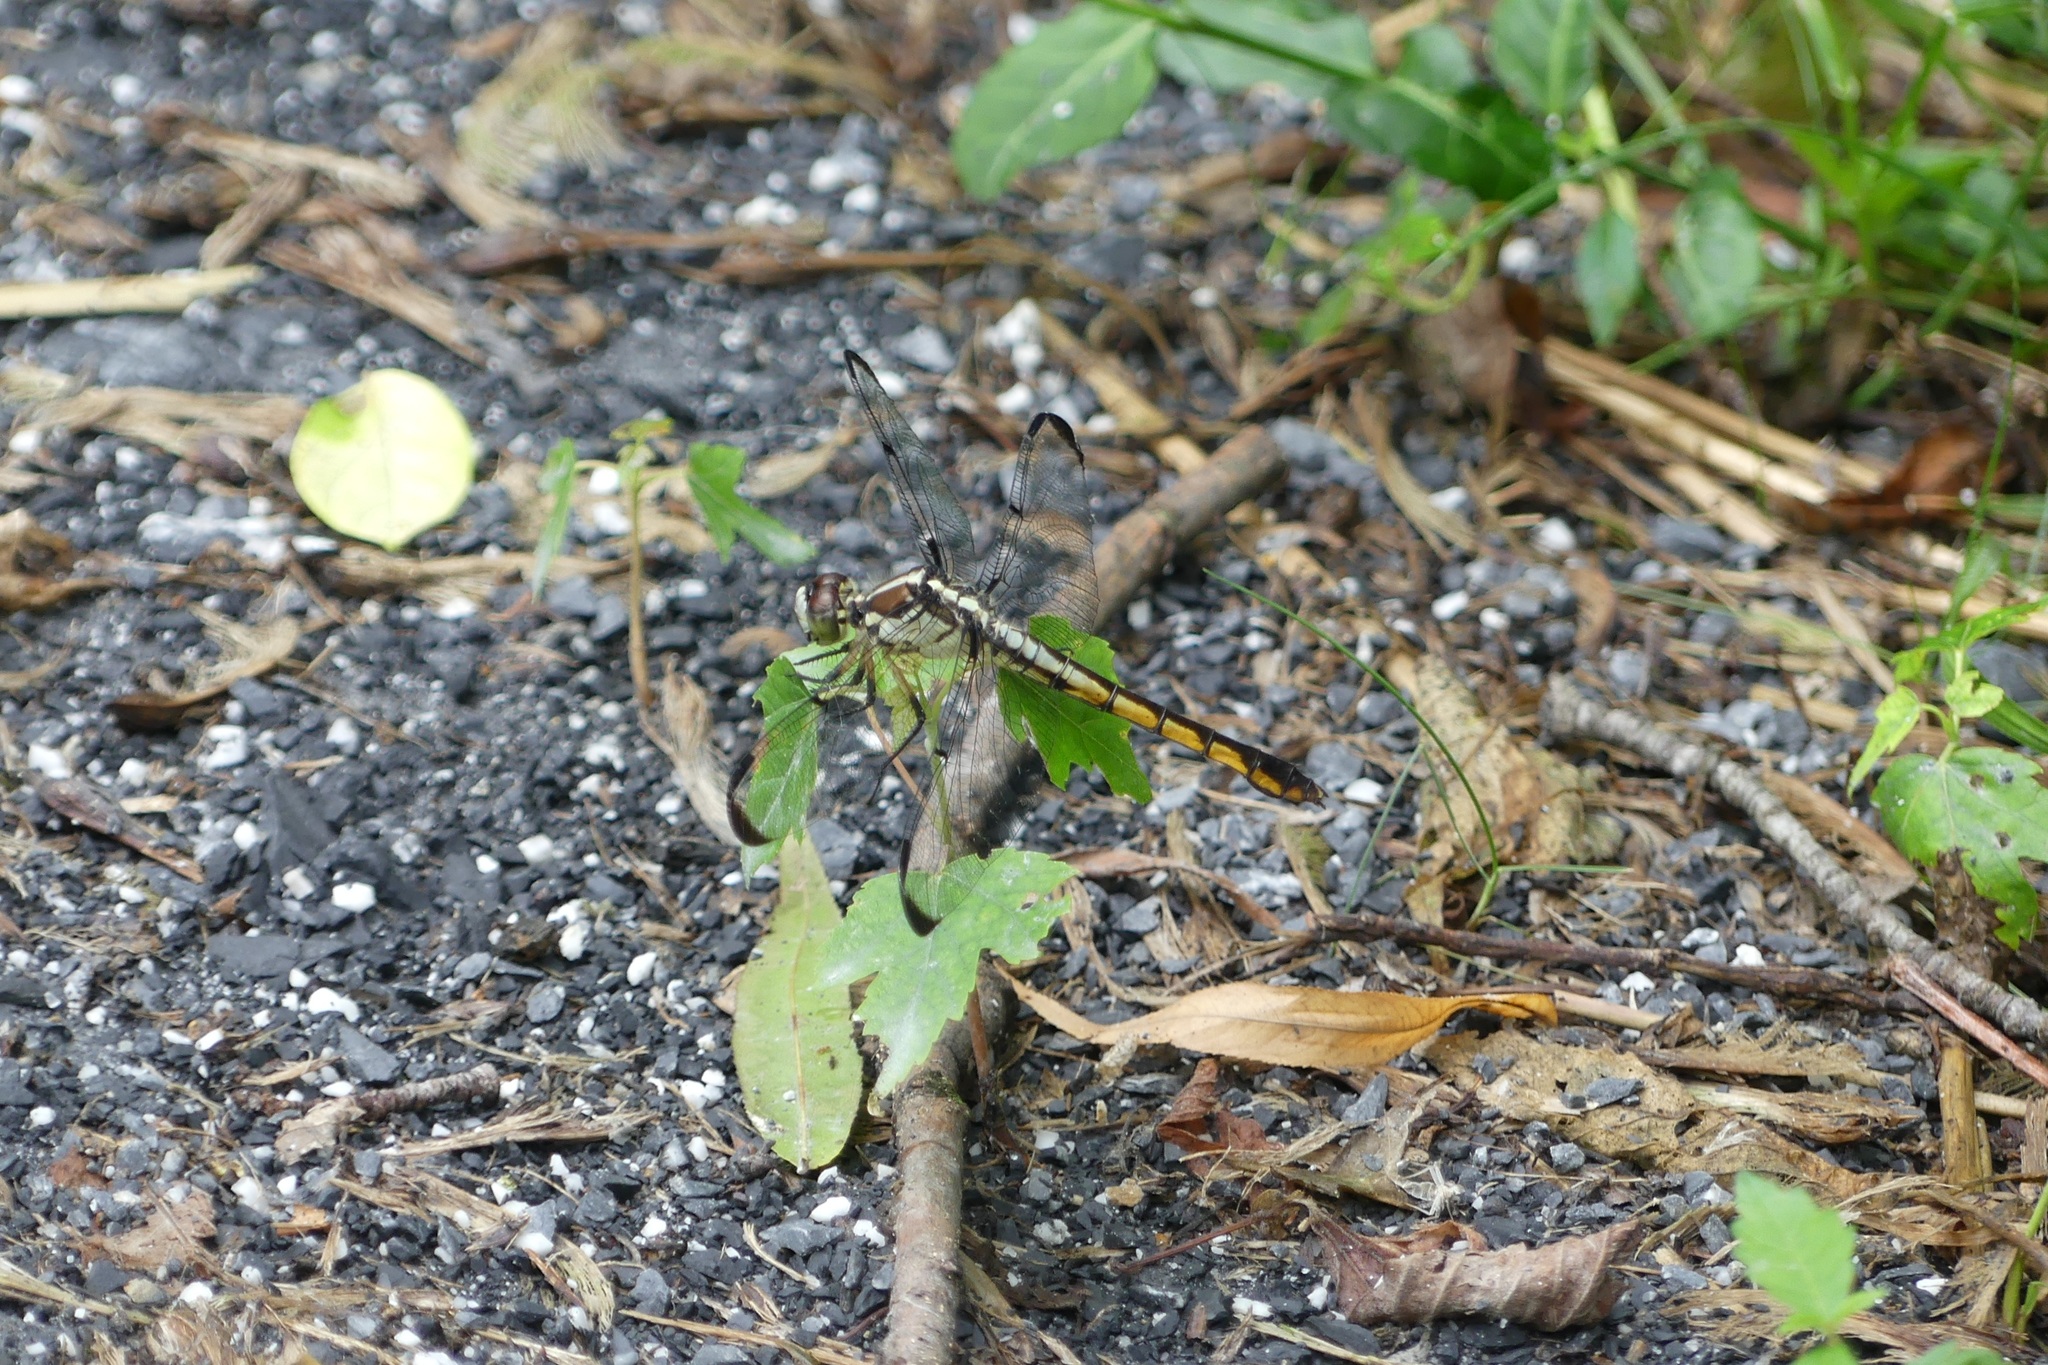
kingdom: Animalia
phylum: Arthropoda
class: Insecta
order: Odonata
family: Libellulidae
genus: Libellula
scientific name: Libellula vibrans
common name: Great blue skimmer
